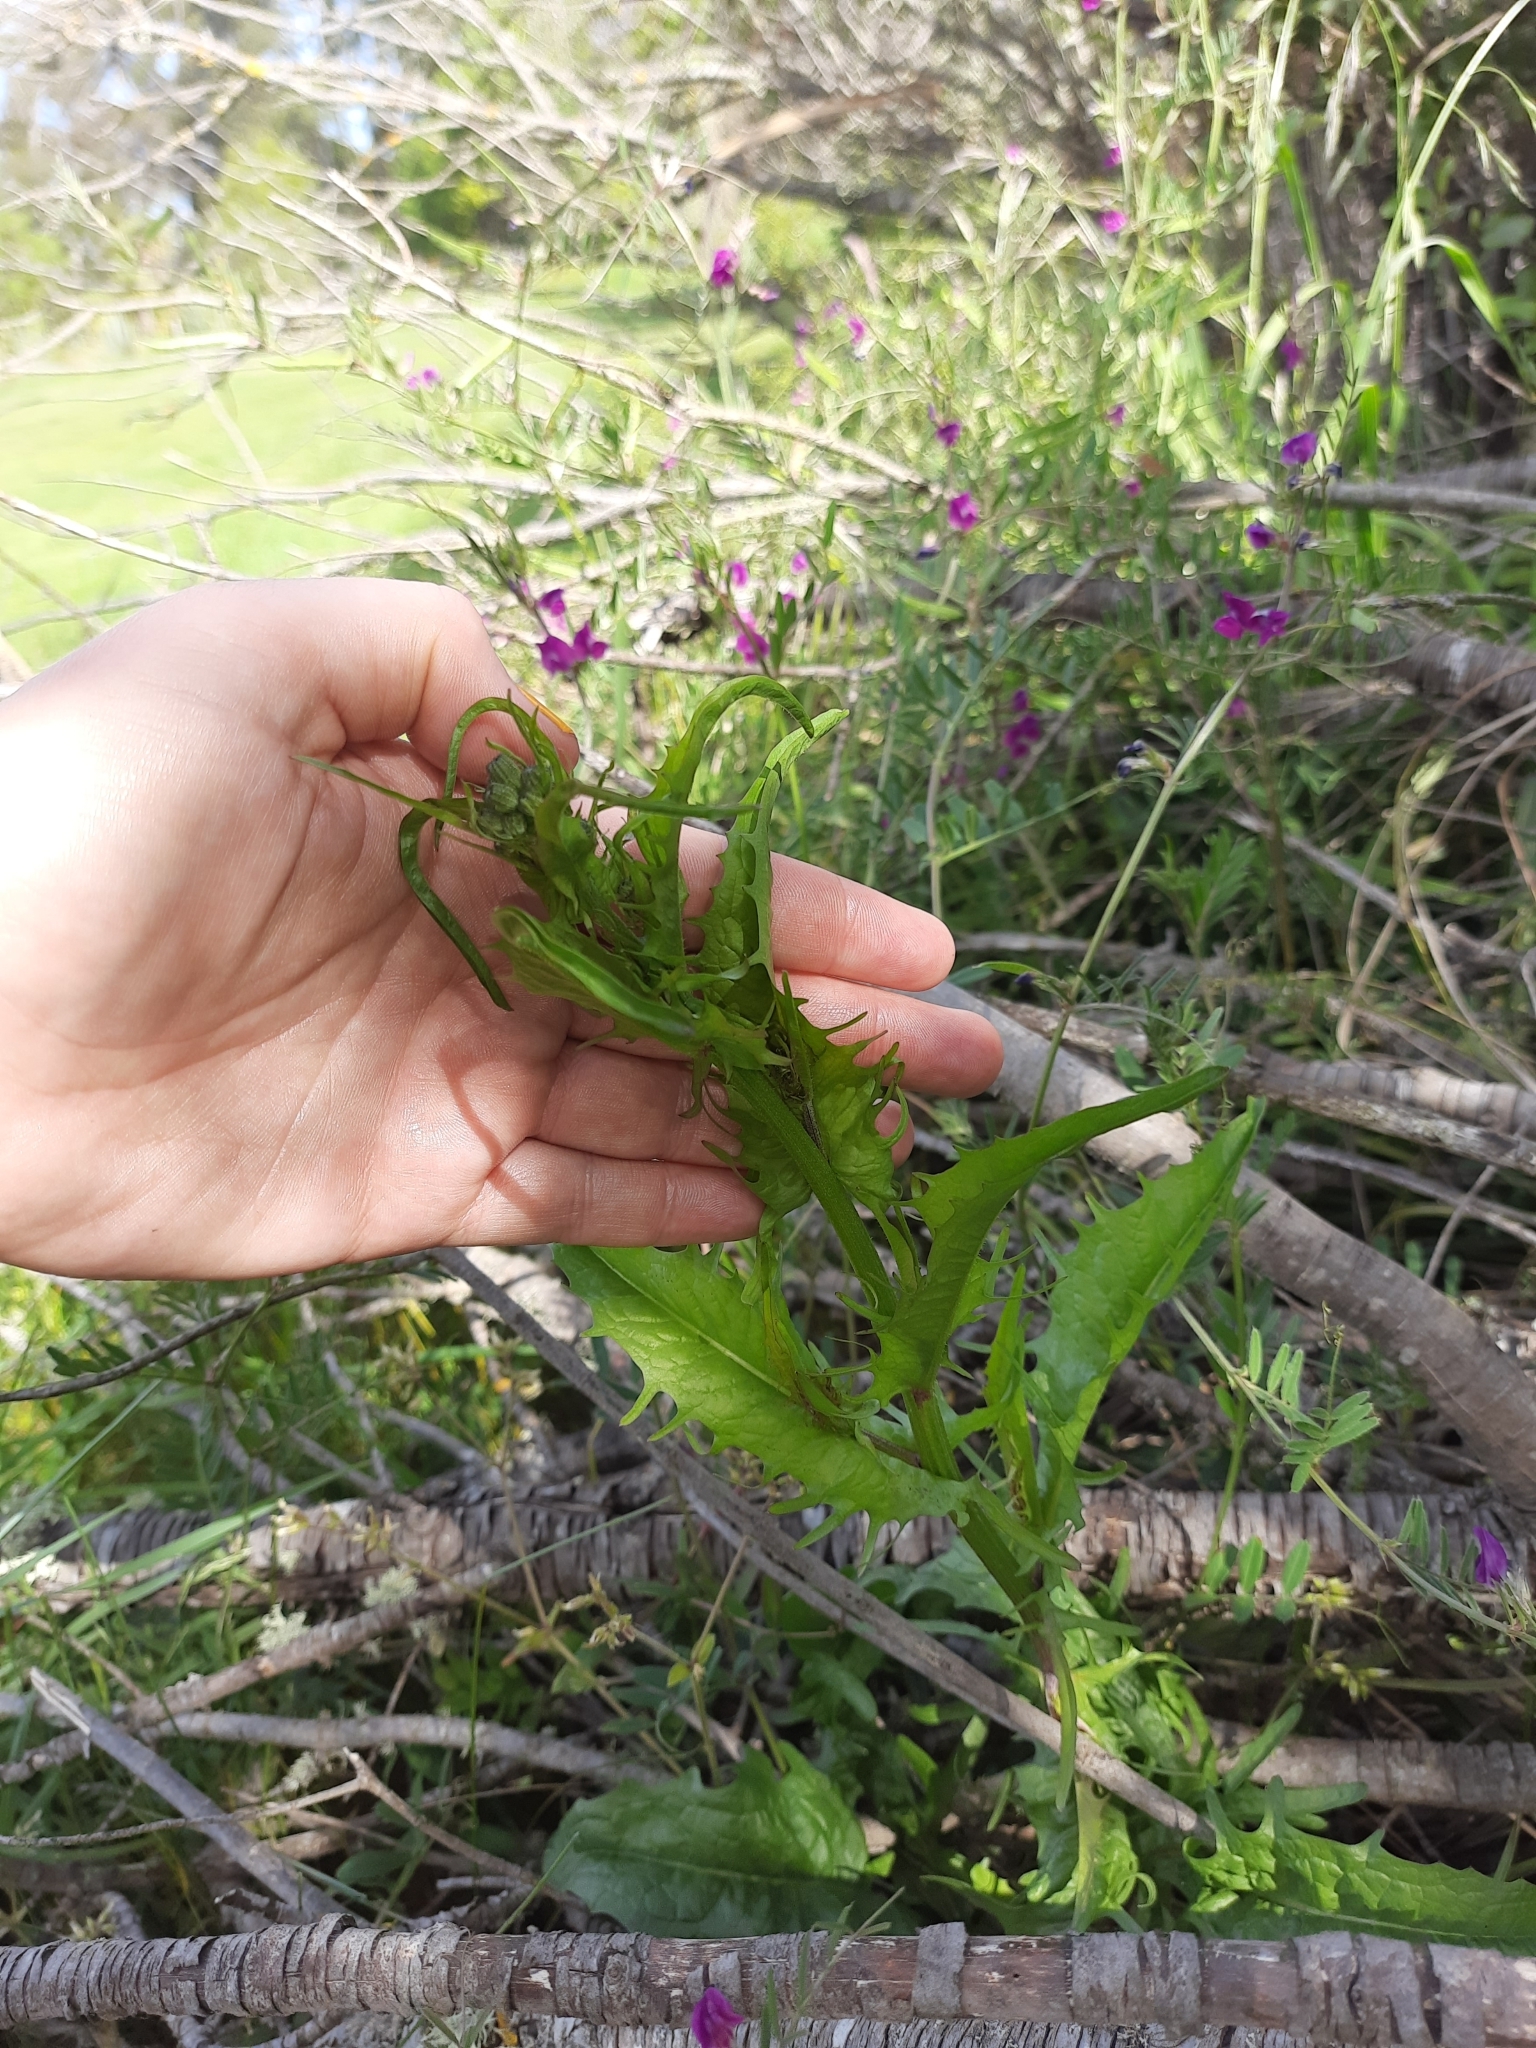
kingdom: Plantae
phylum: Tracheophyta
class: Magnoliopsida
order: Asterales
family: Asteraceae
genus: Crepis
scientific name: Crepis capillaris
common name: Smooth hawksbeard
